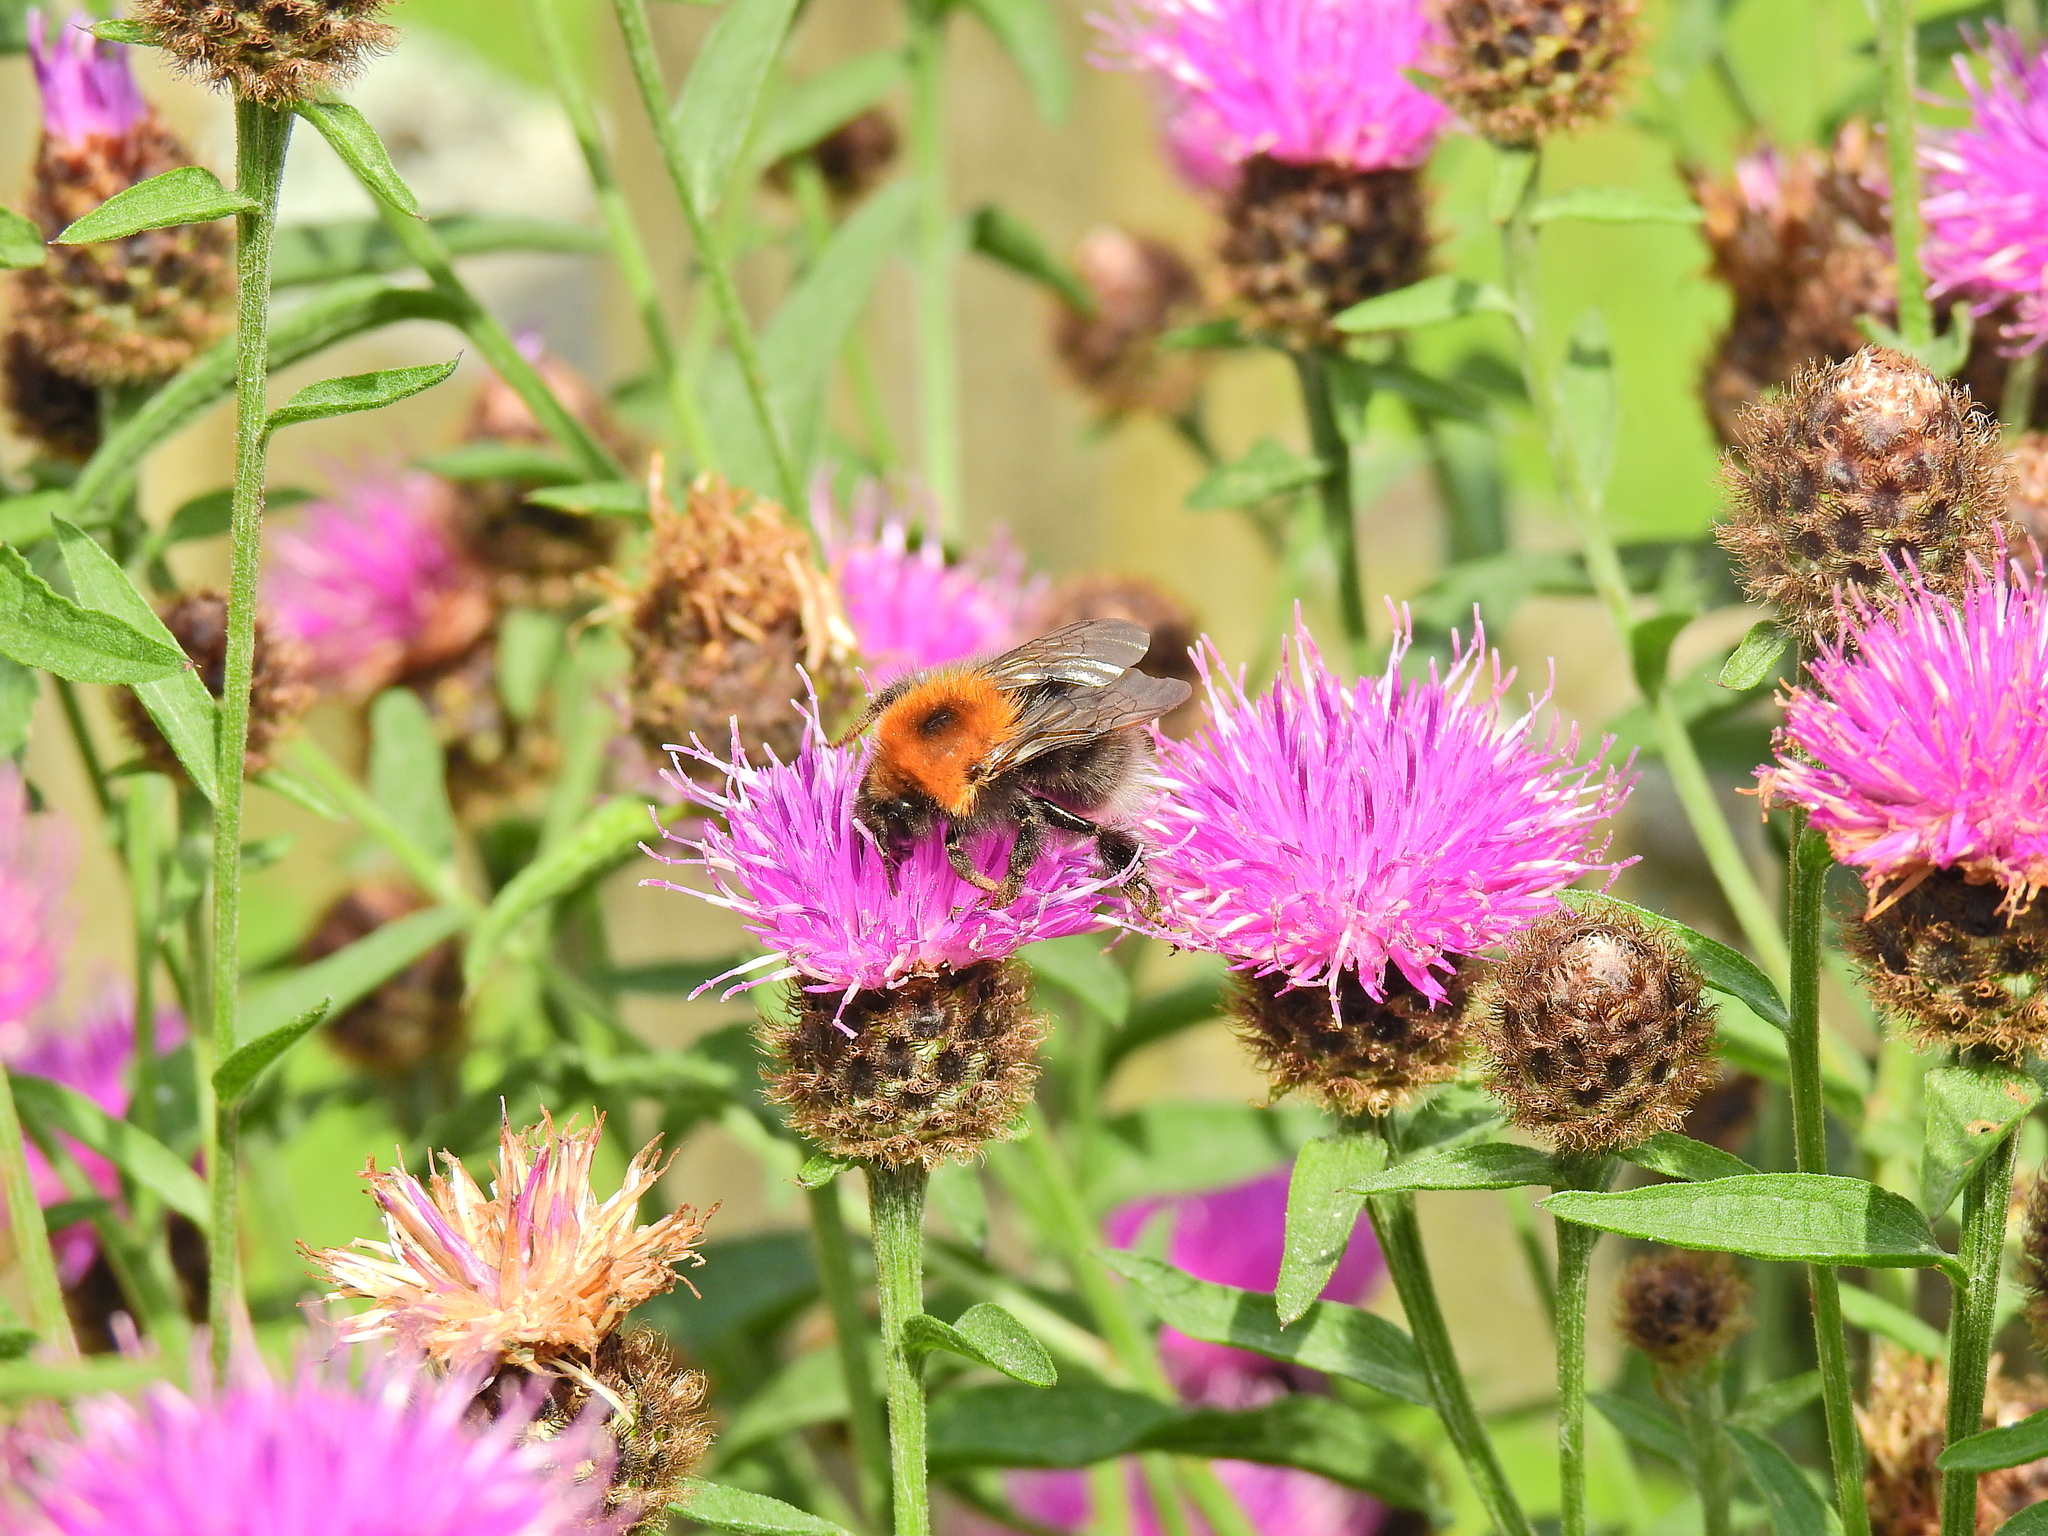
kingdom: Animalia
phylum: Arthropoda
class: Insecta
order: Hymenoptera
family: Apidae
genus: Bombus
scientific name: Bombus hypnorum
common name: New garden bumblebee
